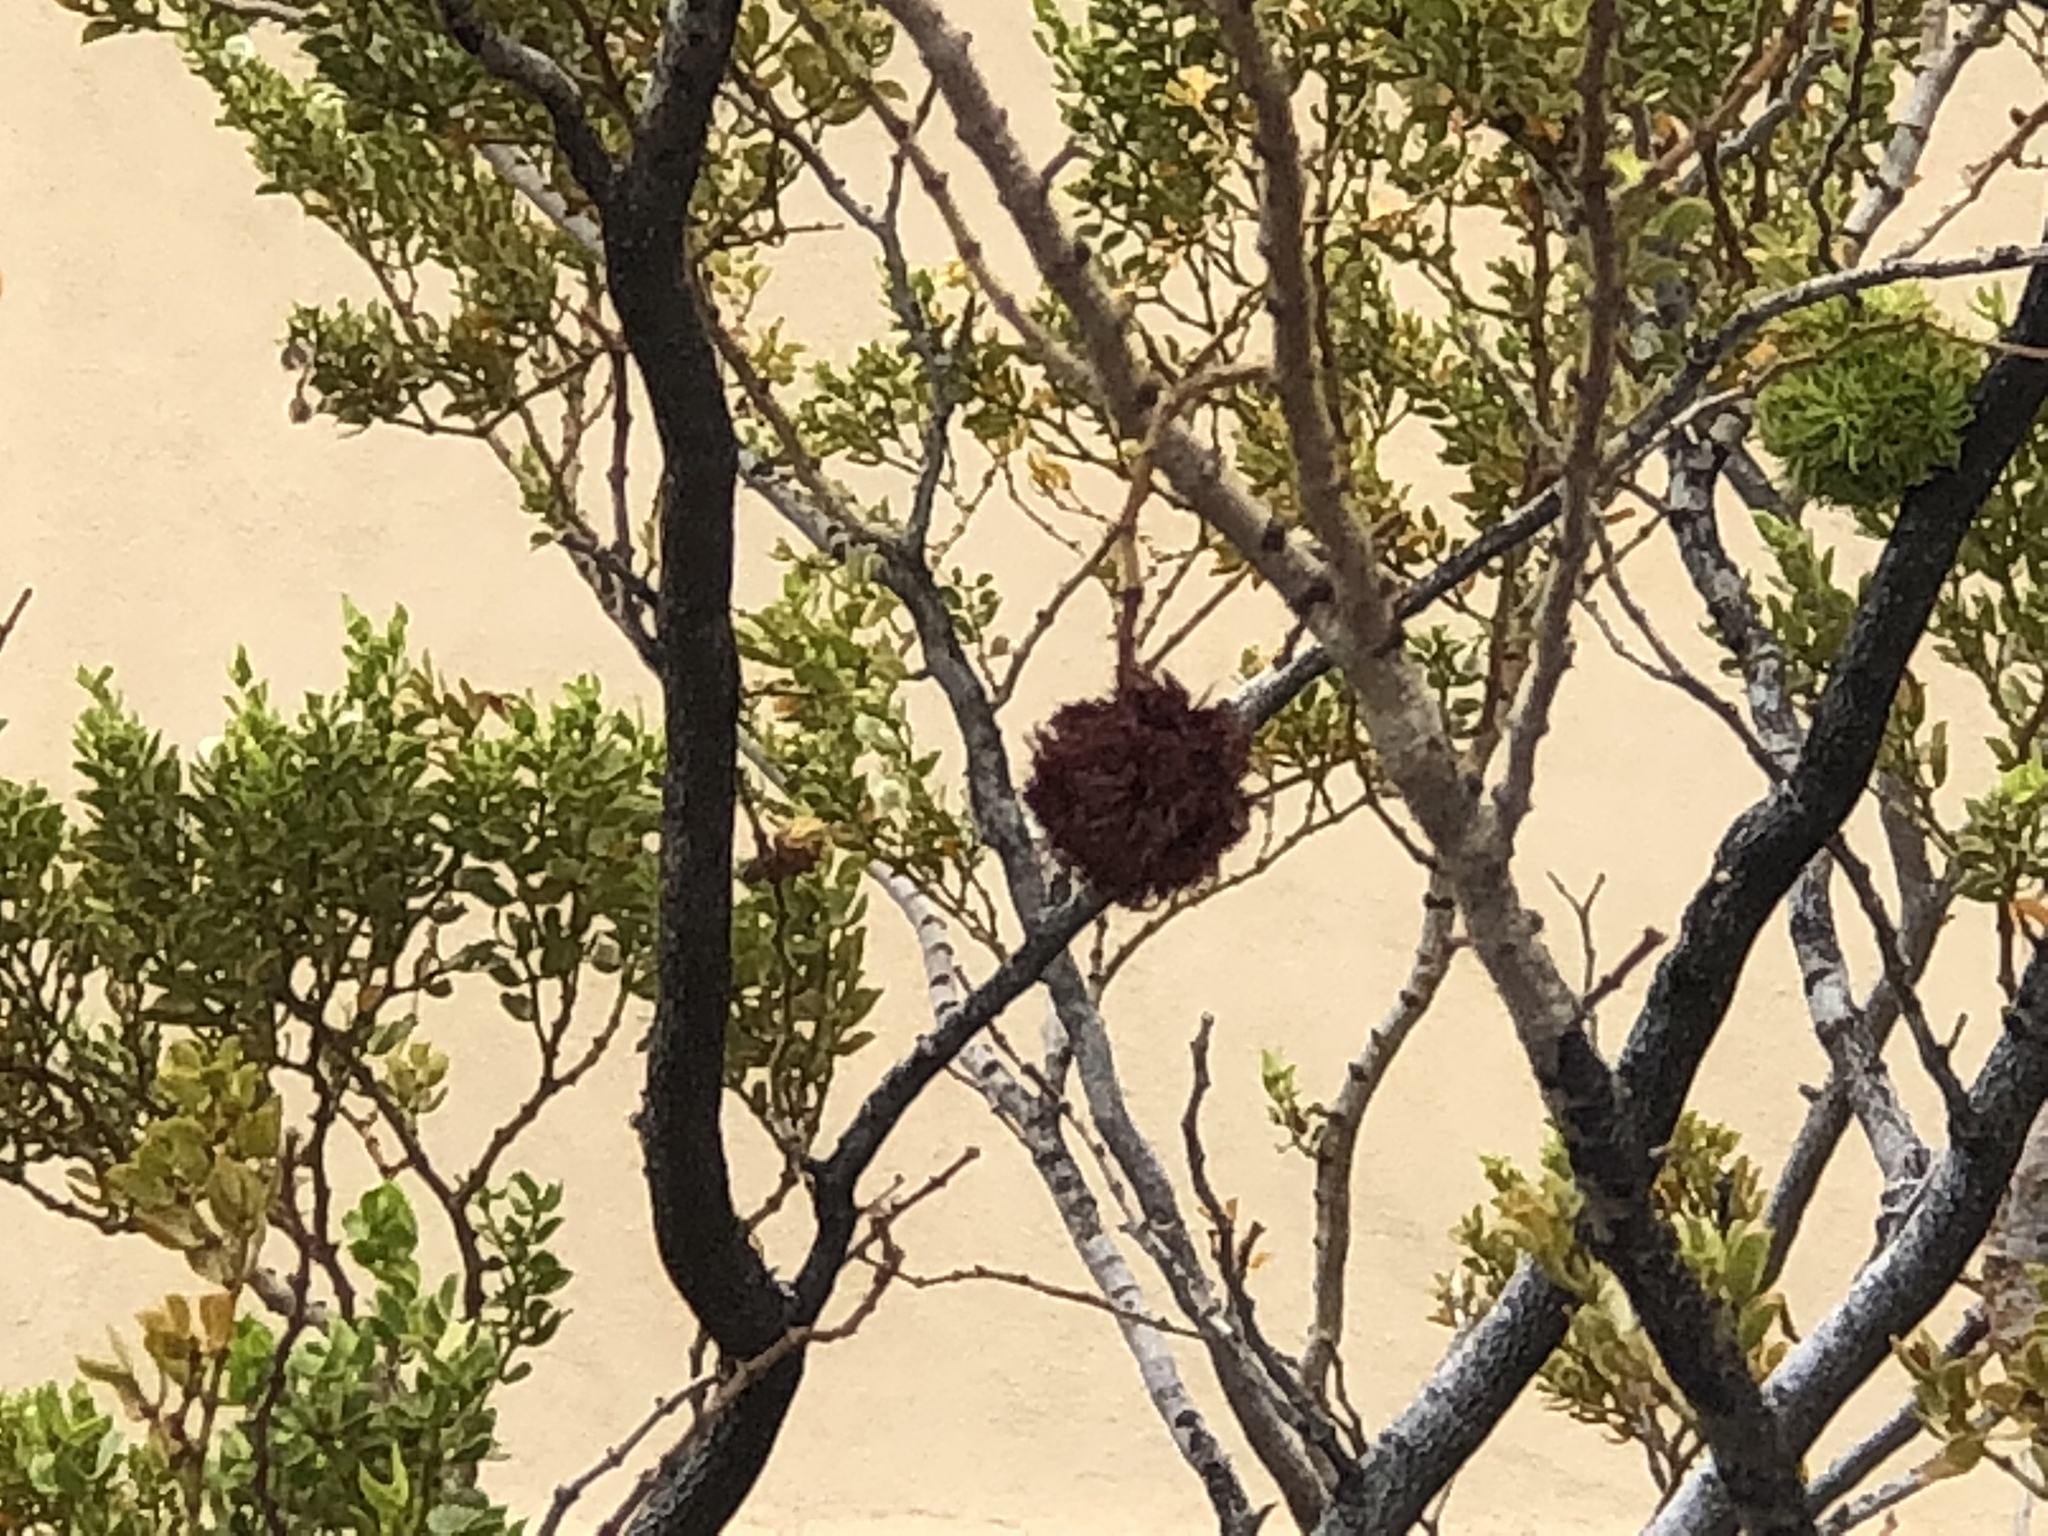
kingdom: Animalia
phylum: Arthropoda
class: Insecta
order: Diptera
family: Cecidomyiidae
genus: Asphondylia
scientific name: Asphondylia auripila
